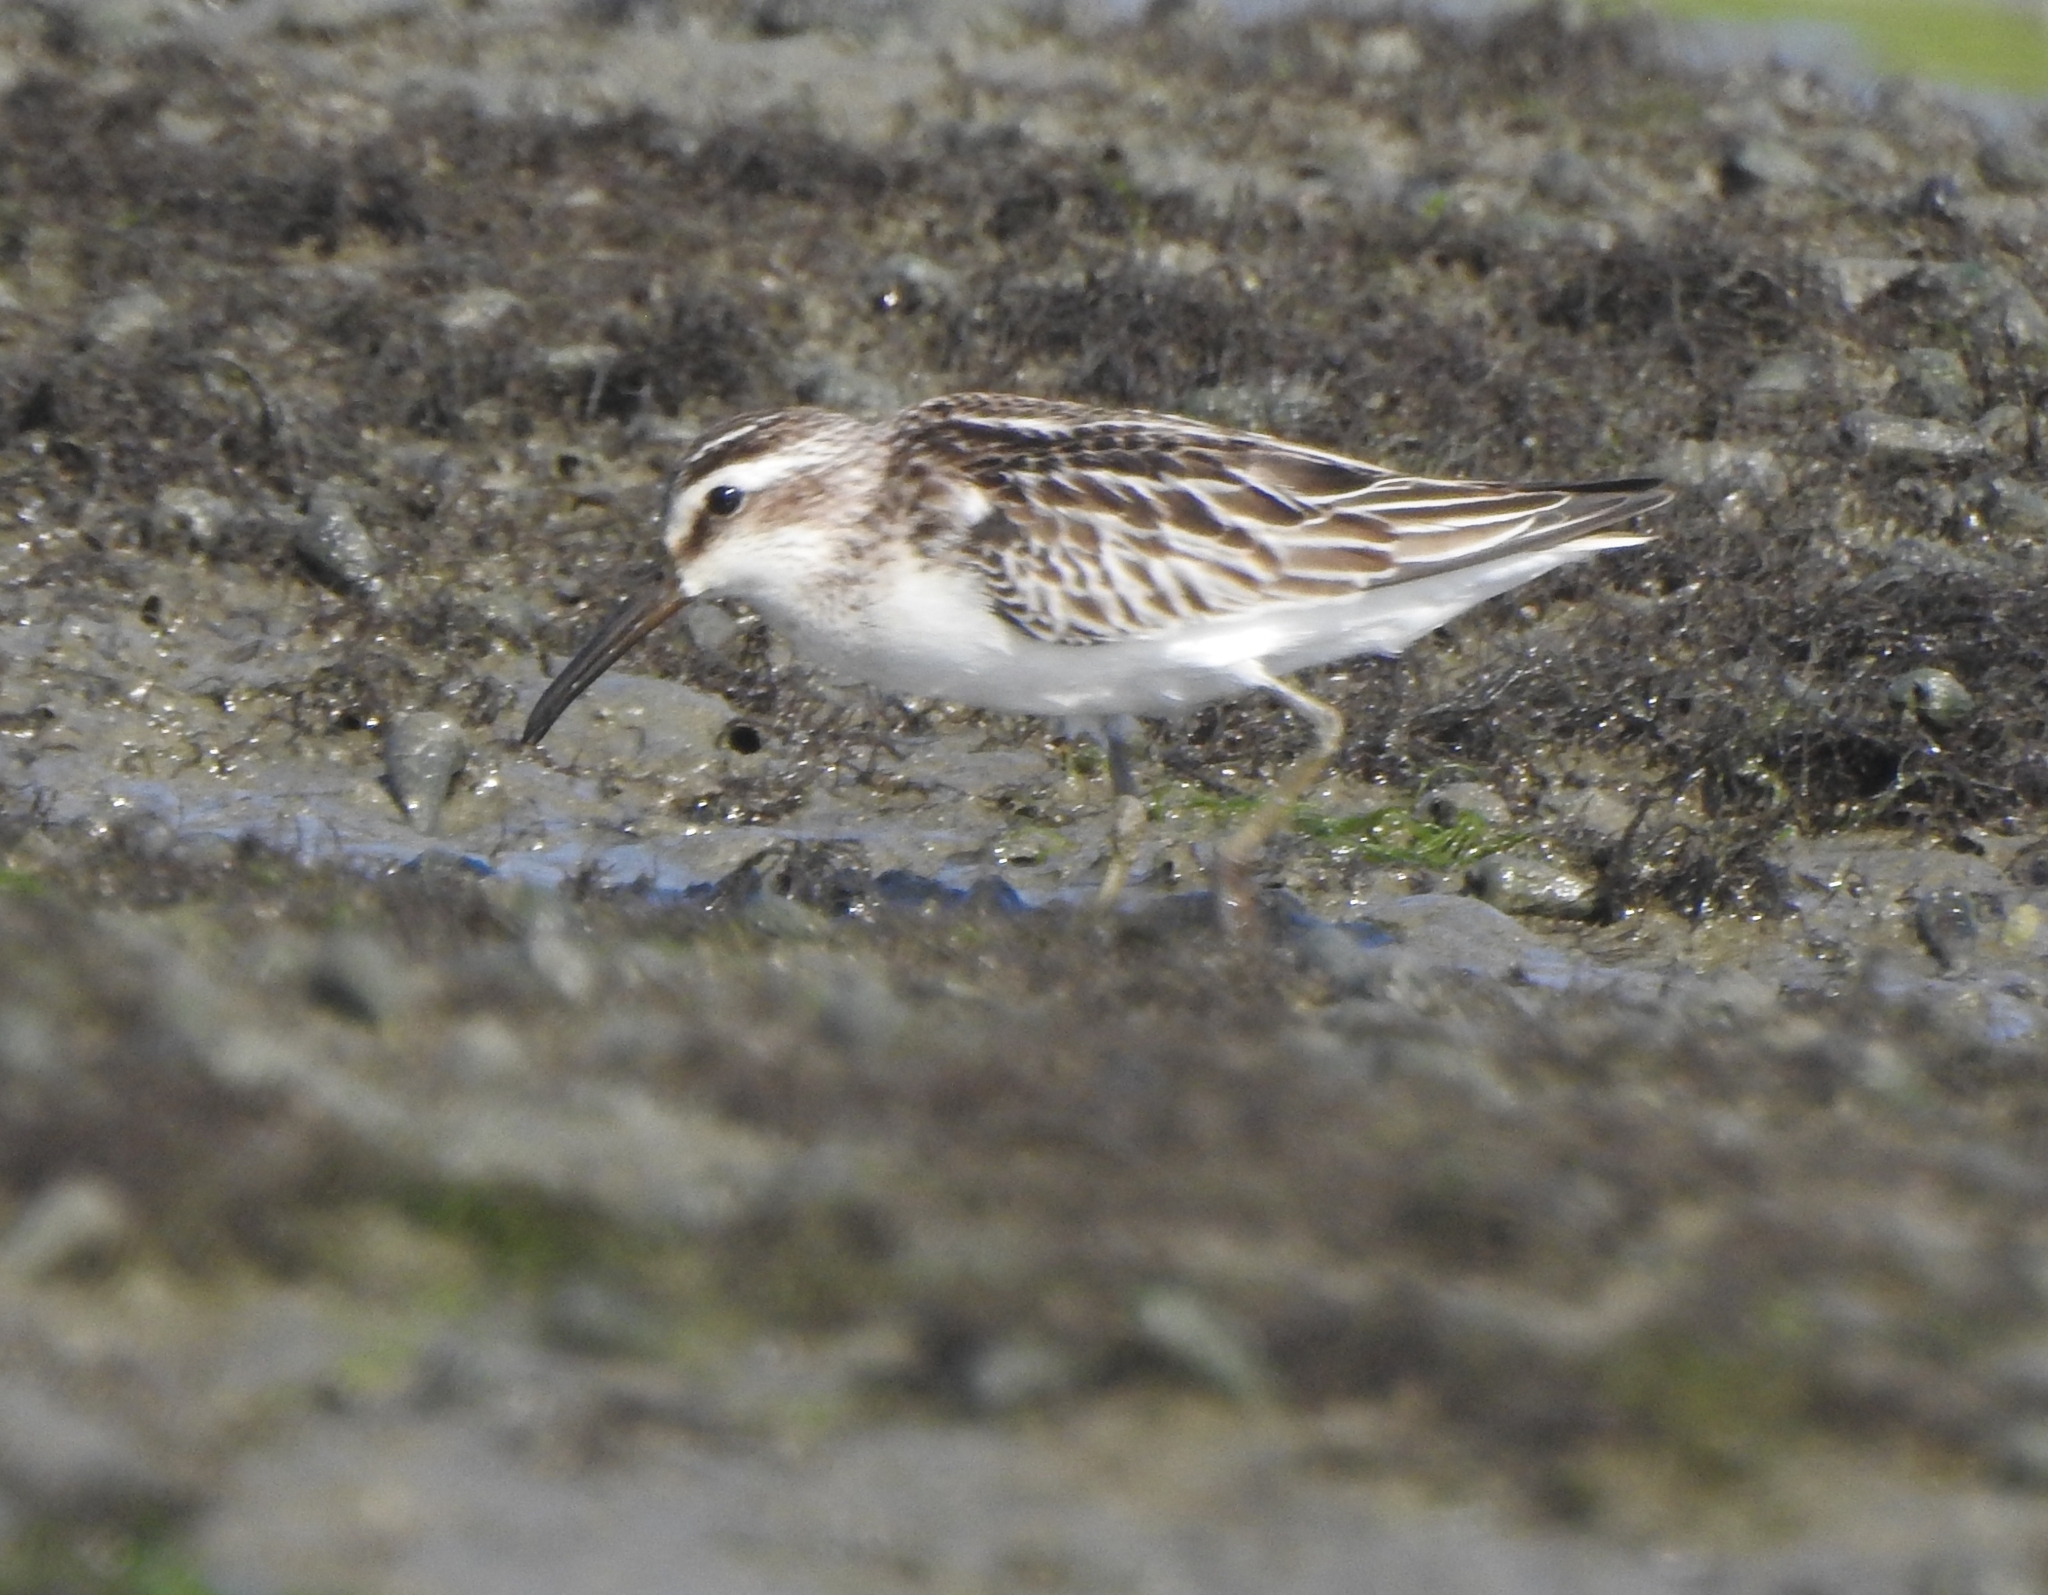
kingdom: Animalia
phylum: Chordata
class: Aves
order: Charadriiformes
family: Scolopacidae
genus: Calidris
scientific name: Calidris falcinellus
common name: Broad-billed sandpiper
